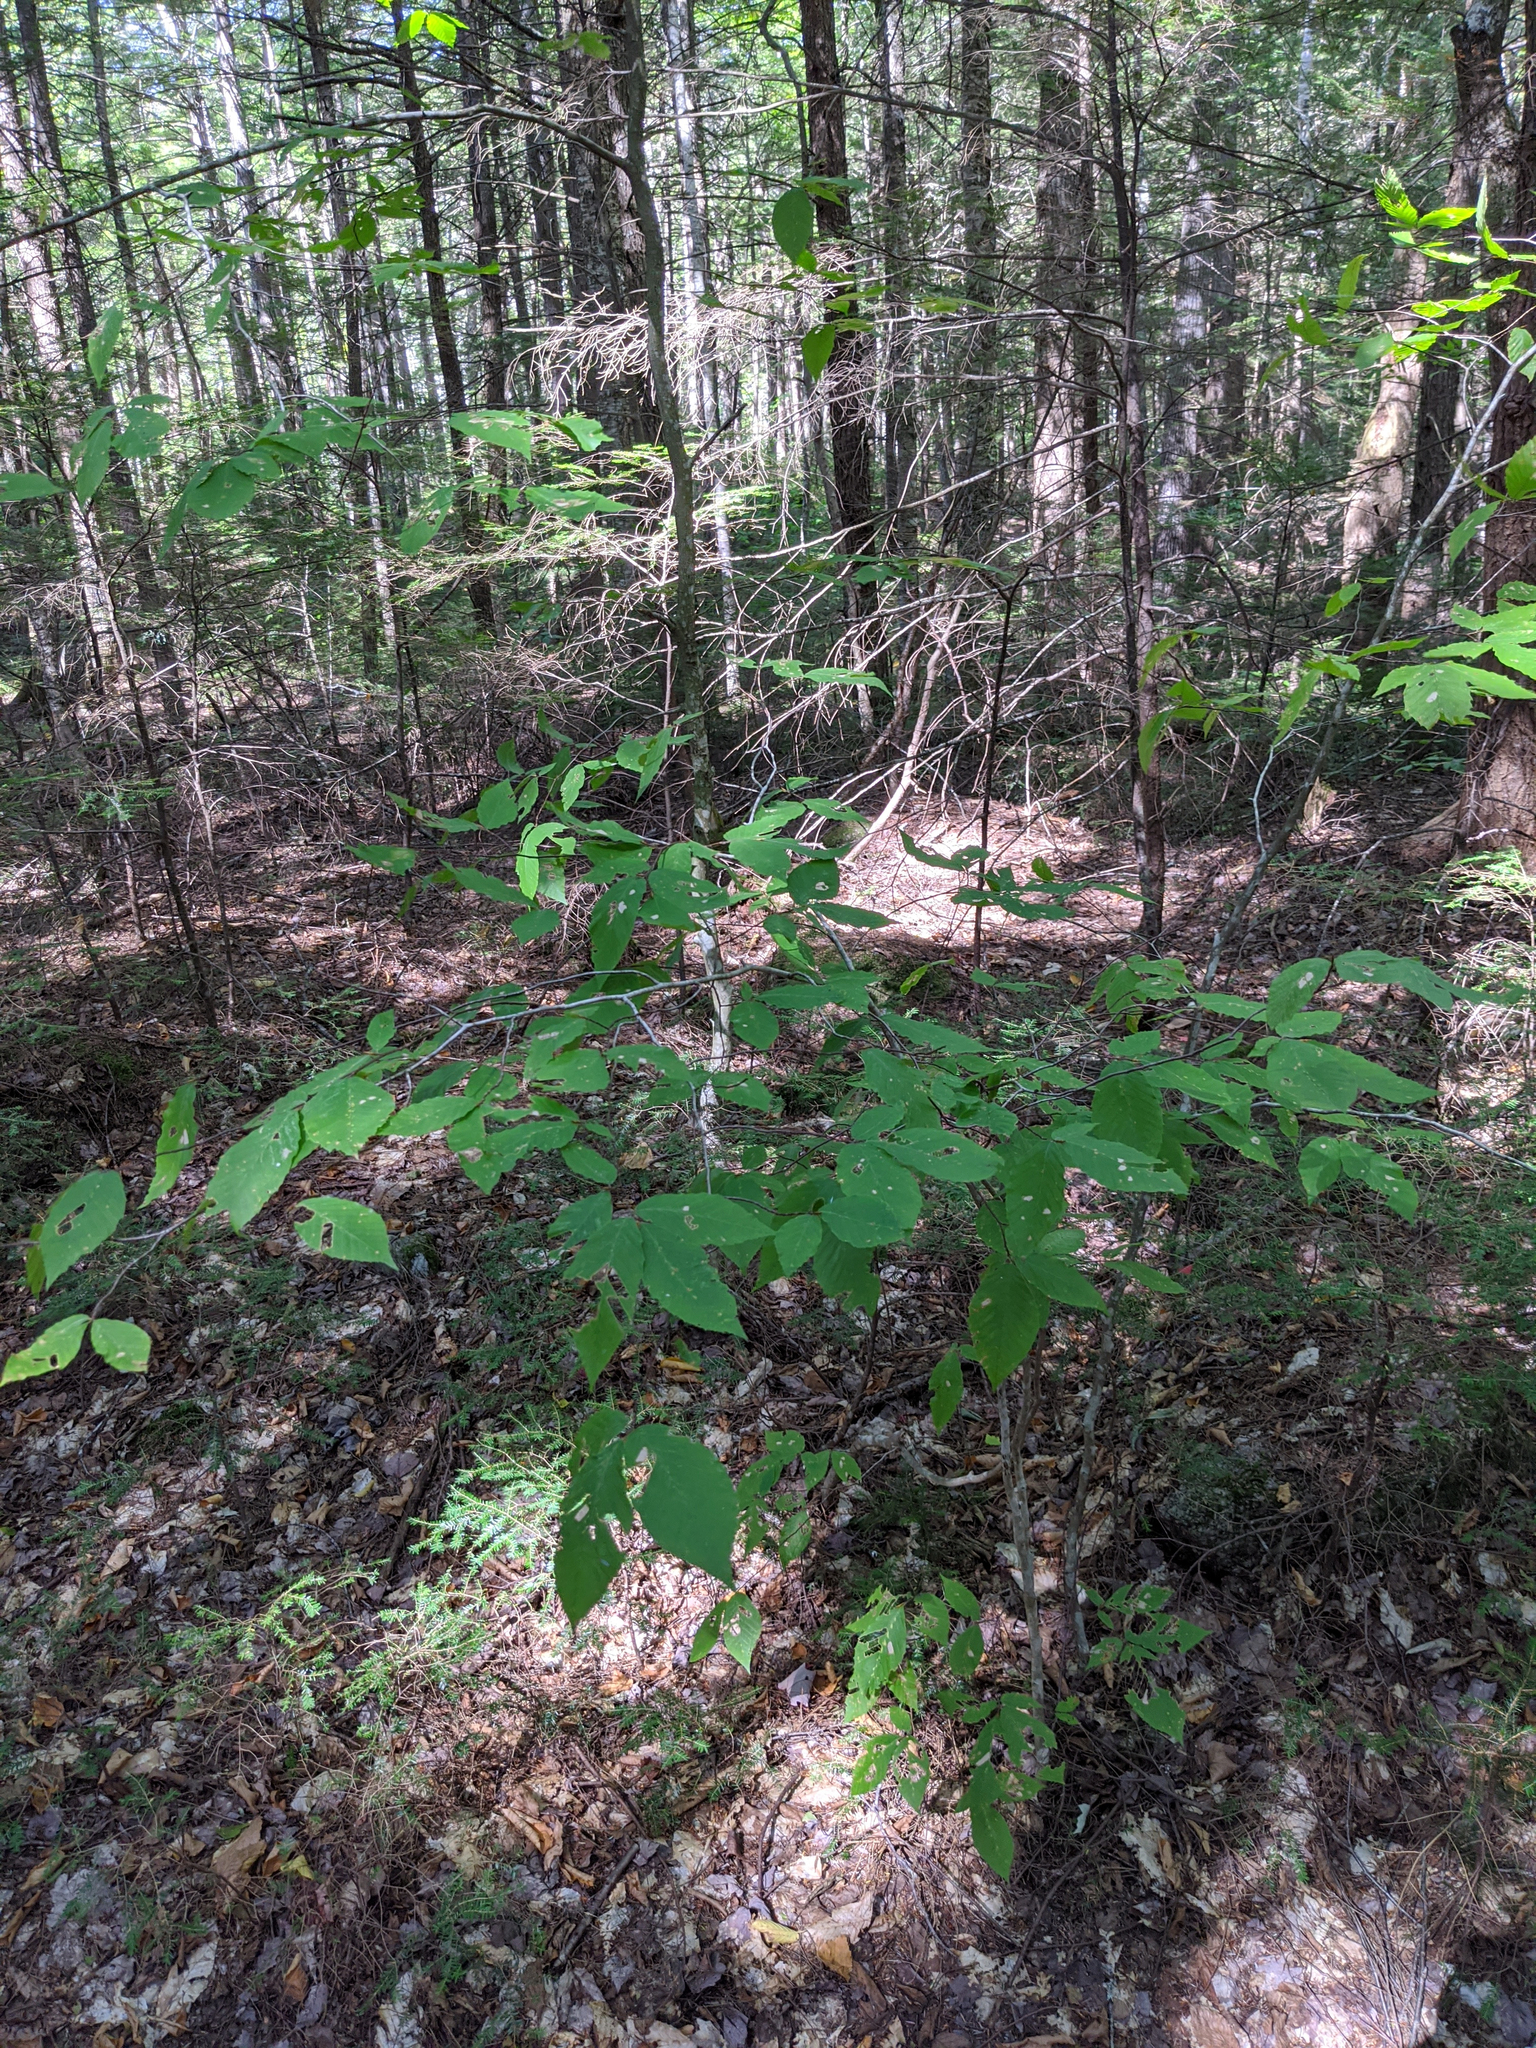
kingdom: Plantae
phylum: Tracheophyta
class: Magnoliopsida
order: Fagales
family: Fagaceae
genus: Fagus
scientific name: Fagus grandifolia
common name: American beech
